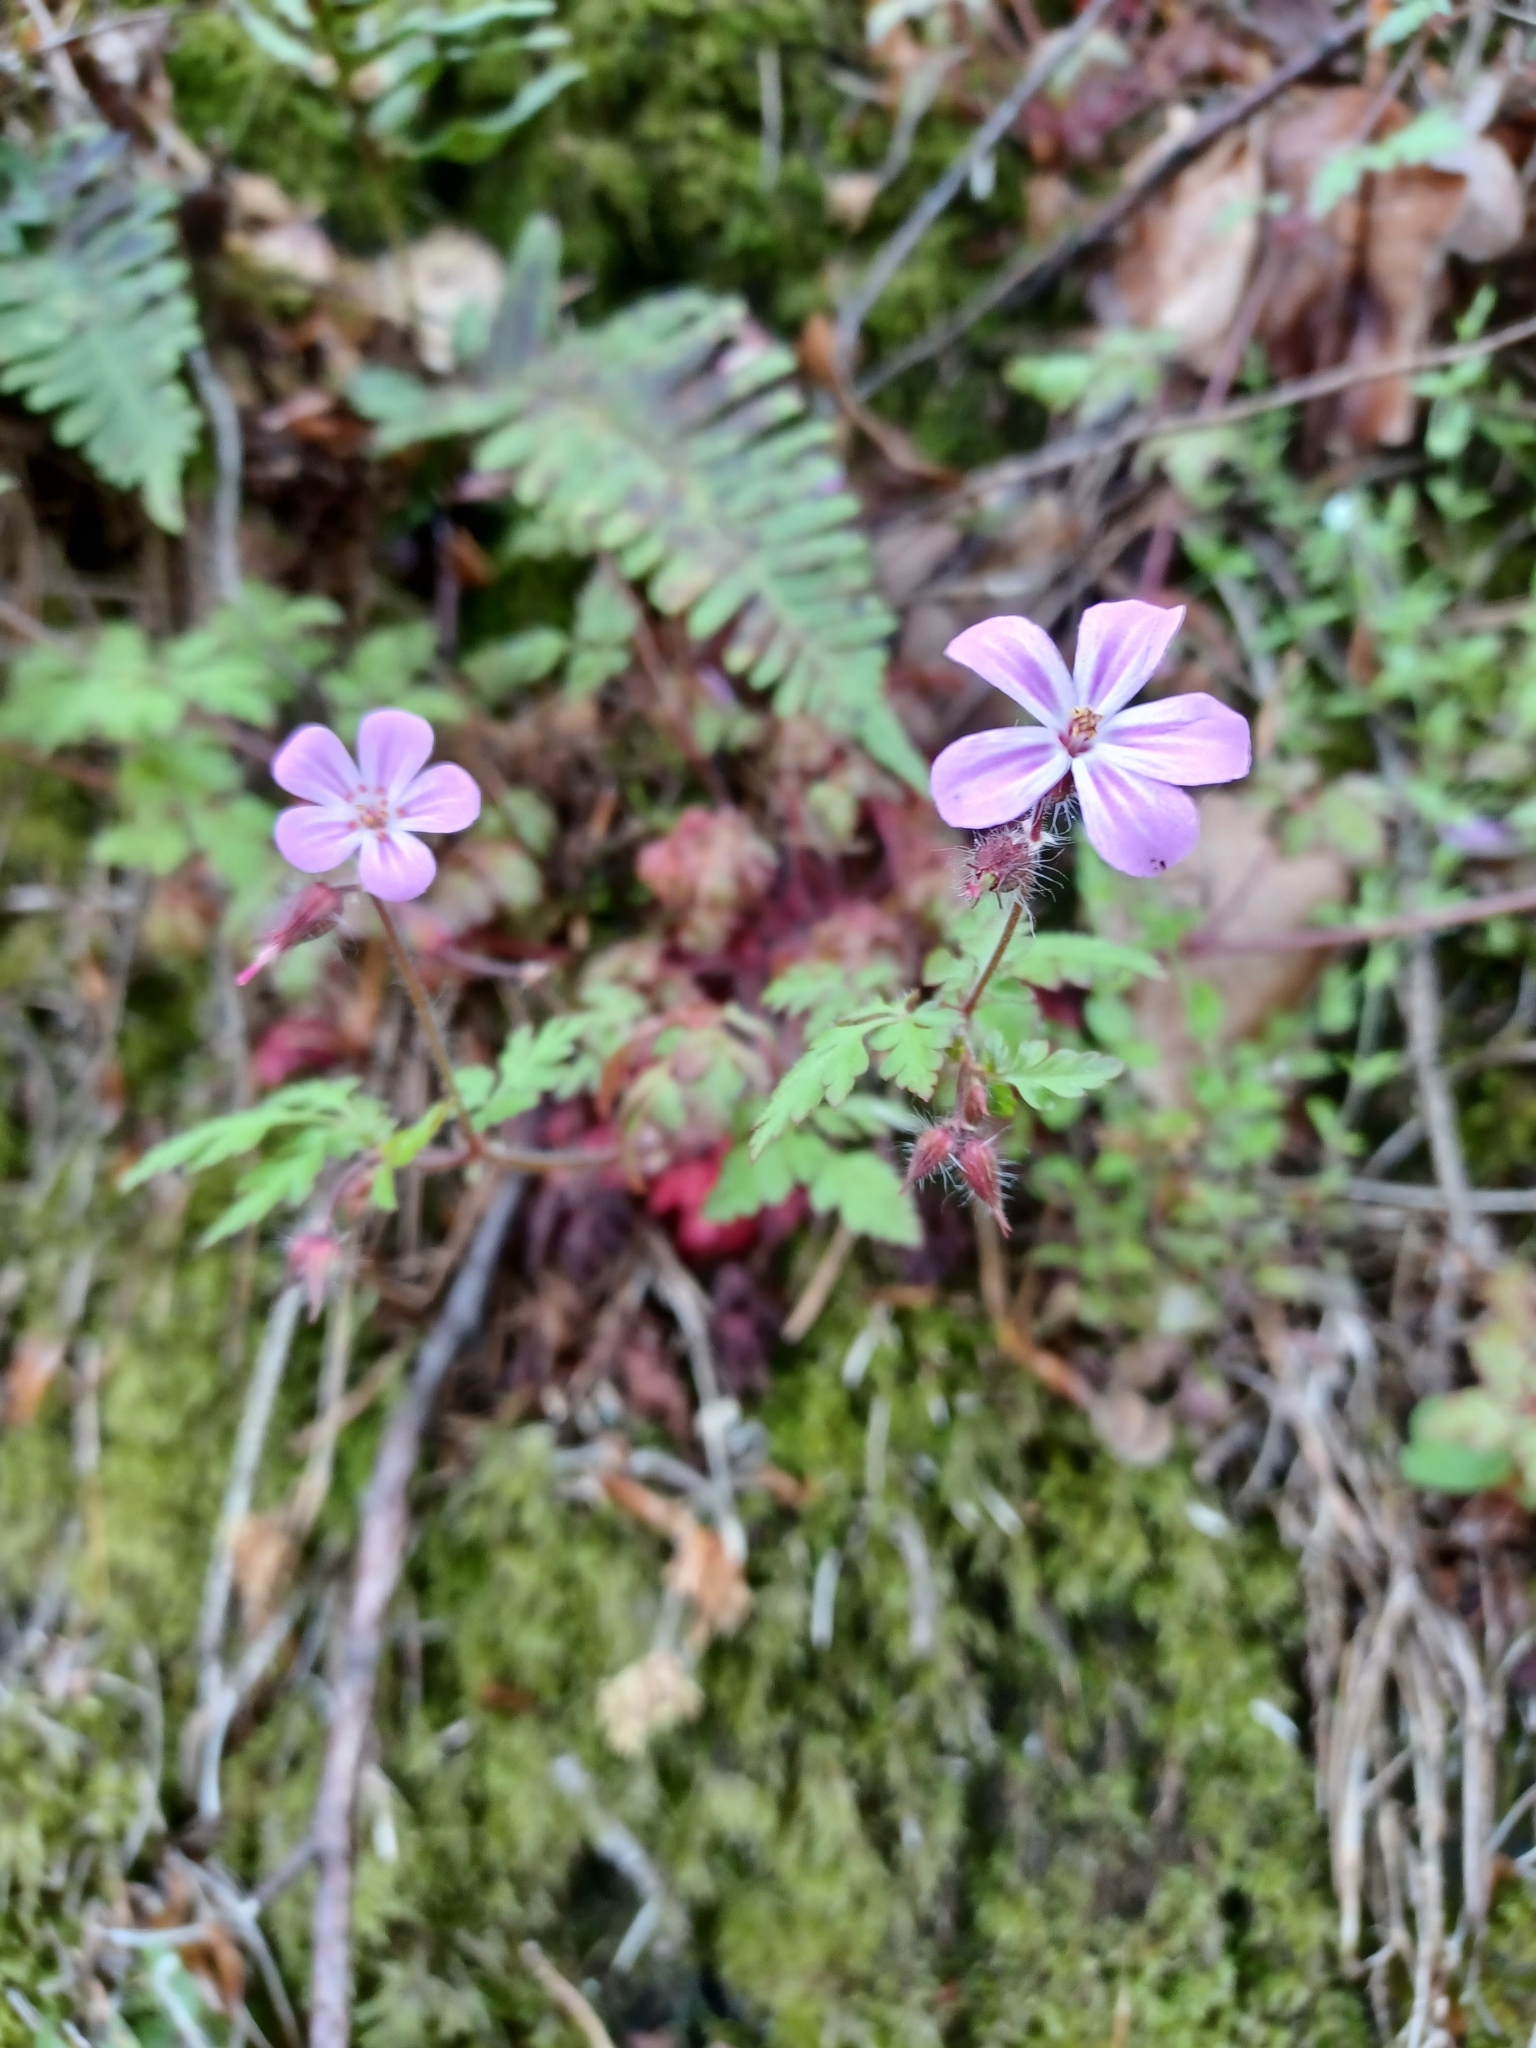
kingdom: Plantae
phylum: Tracheophyta
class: Magnoliopsida
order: Geraniales
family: Geraniaceae
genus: Geranium
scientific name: Geranium robertianum
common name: Herb-robert
